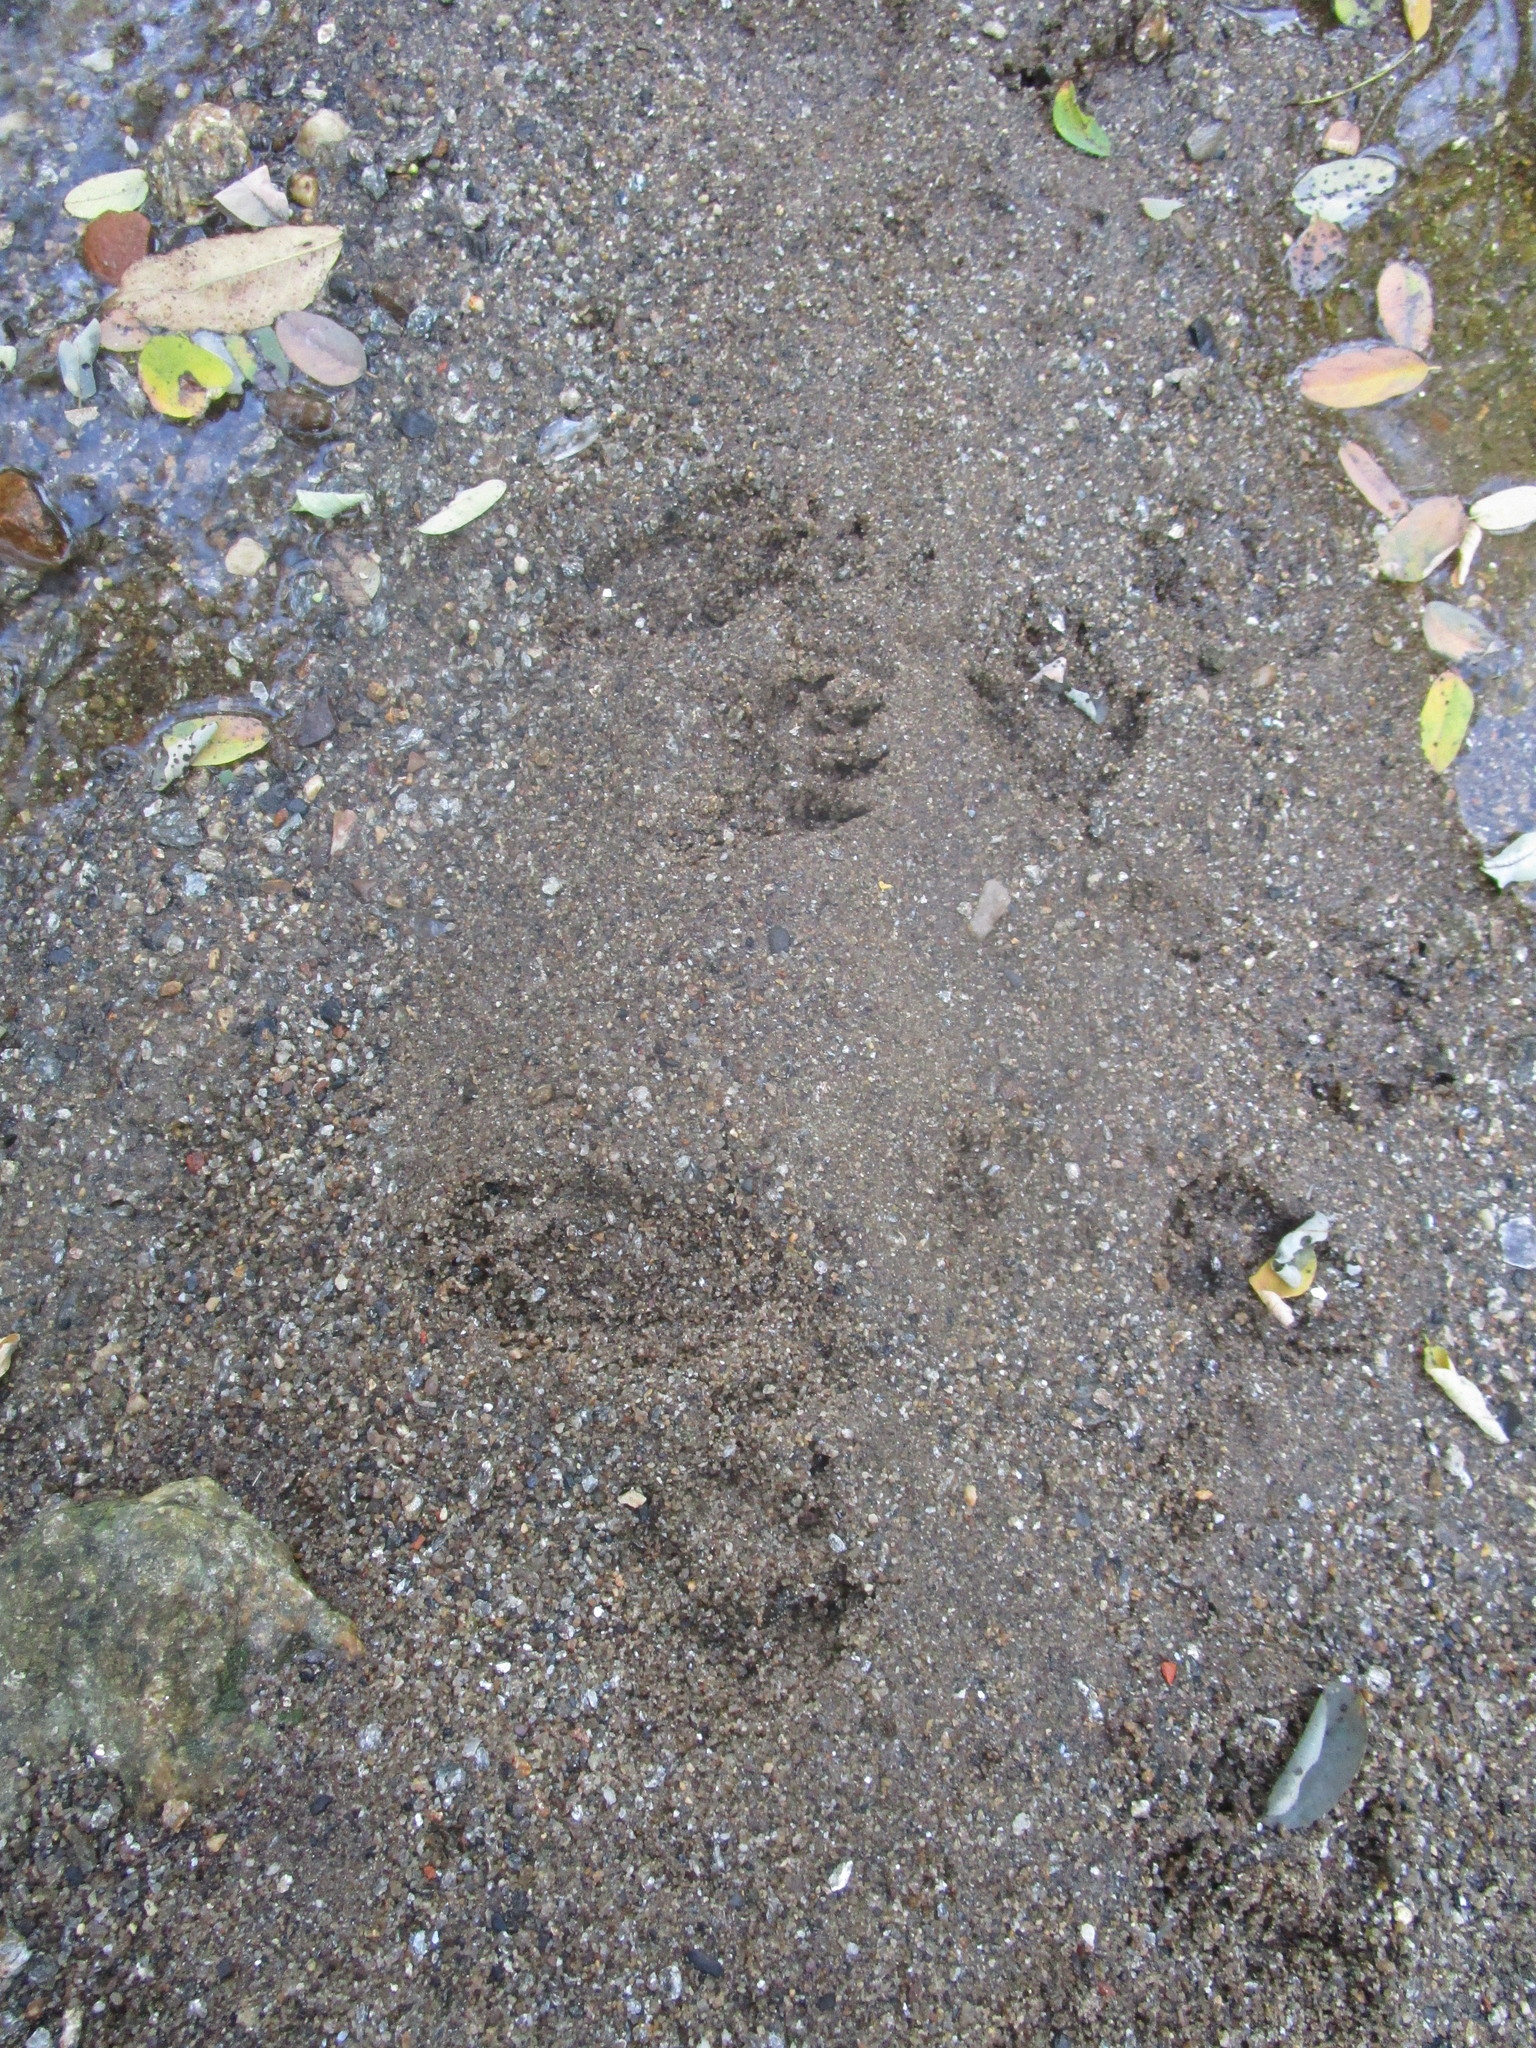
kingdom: Animalia
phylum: Chordata
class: Mammalia
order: Carnivora
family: Procyonidae
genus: Procyon
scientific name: Procyon lotor
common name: Raccoon
